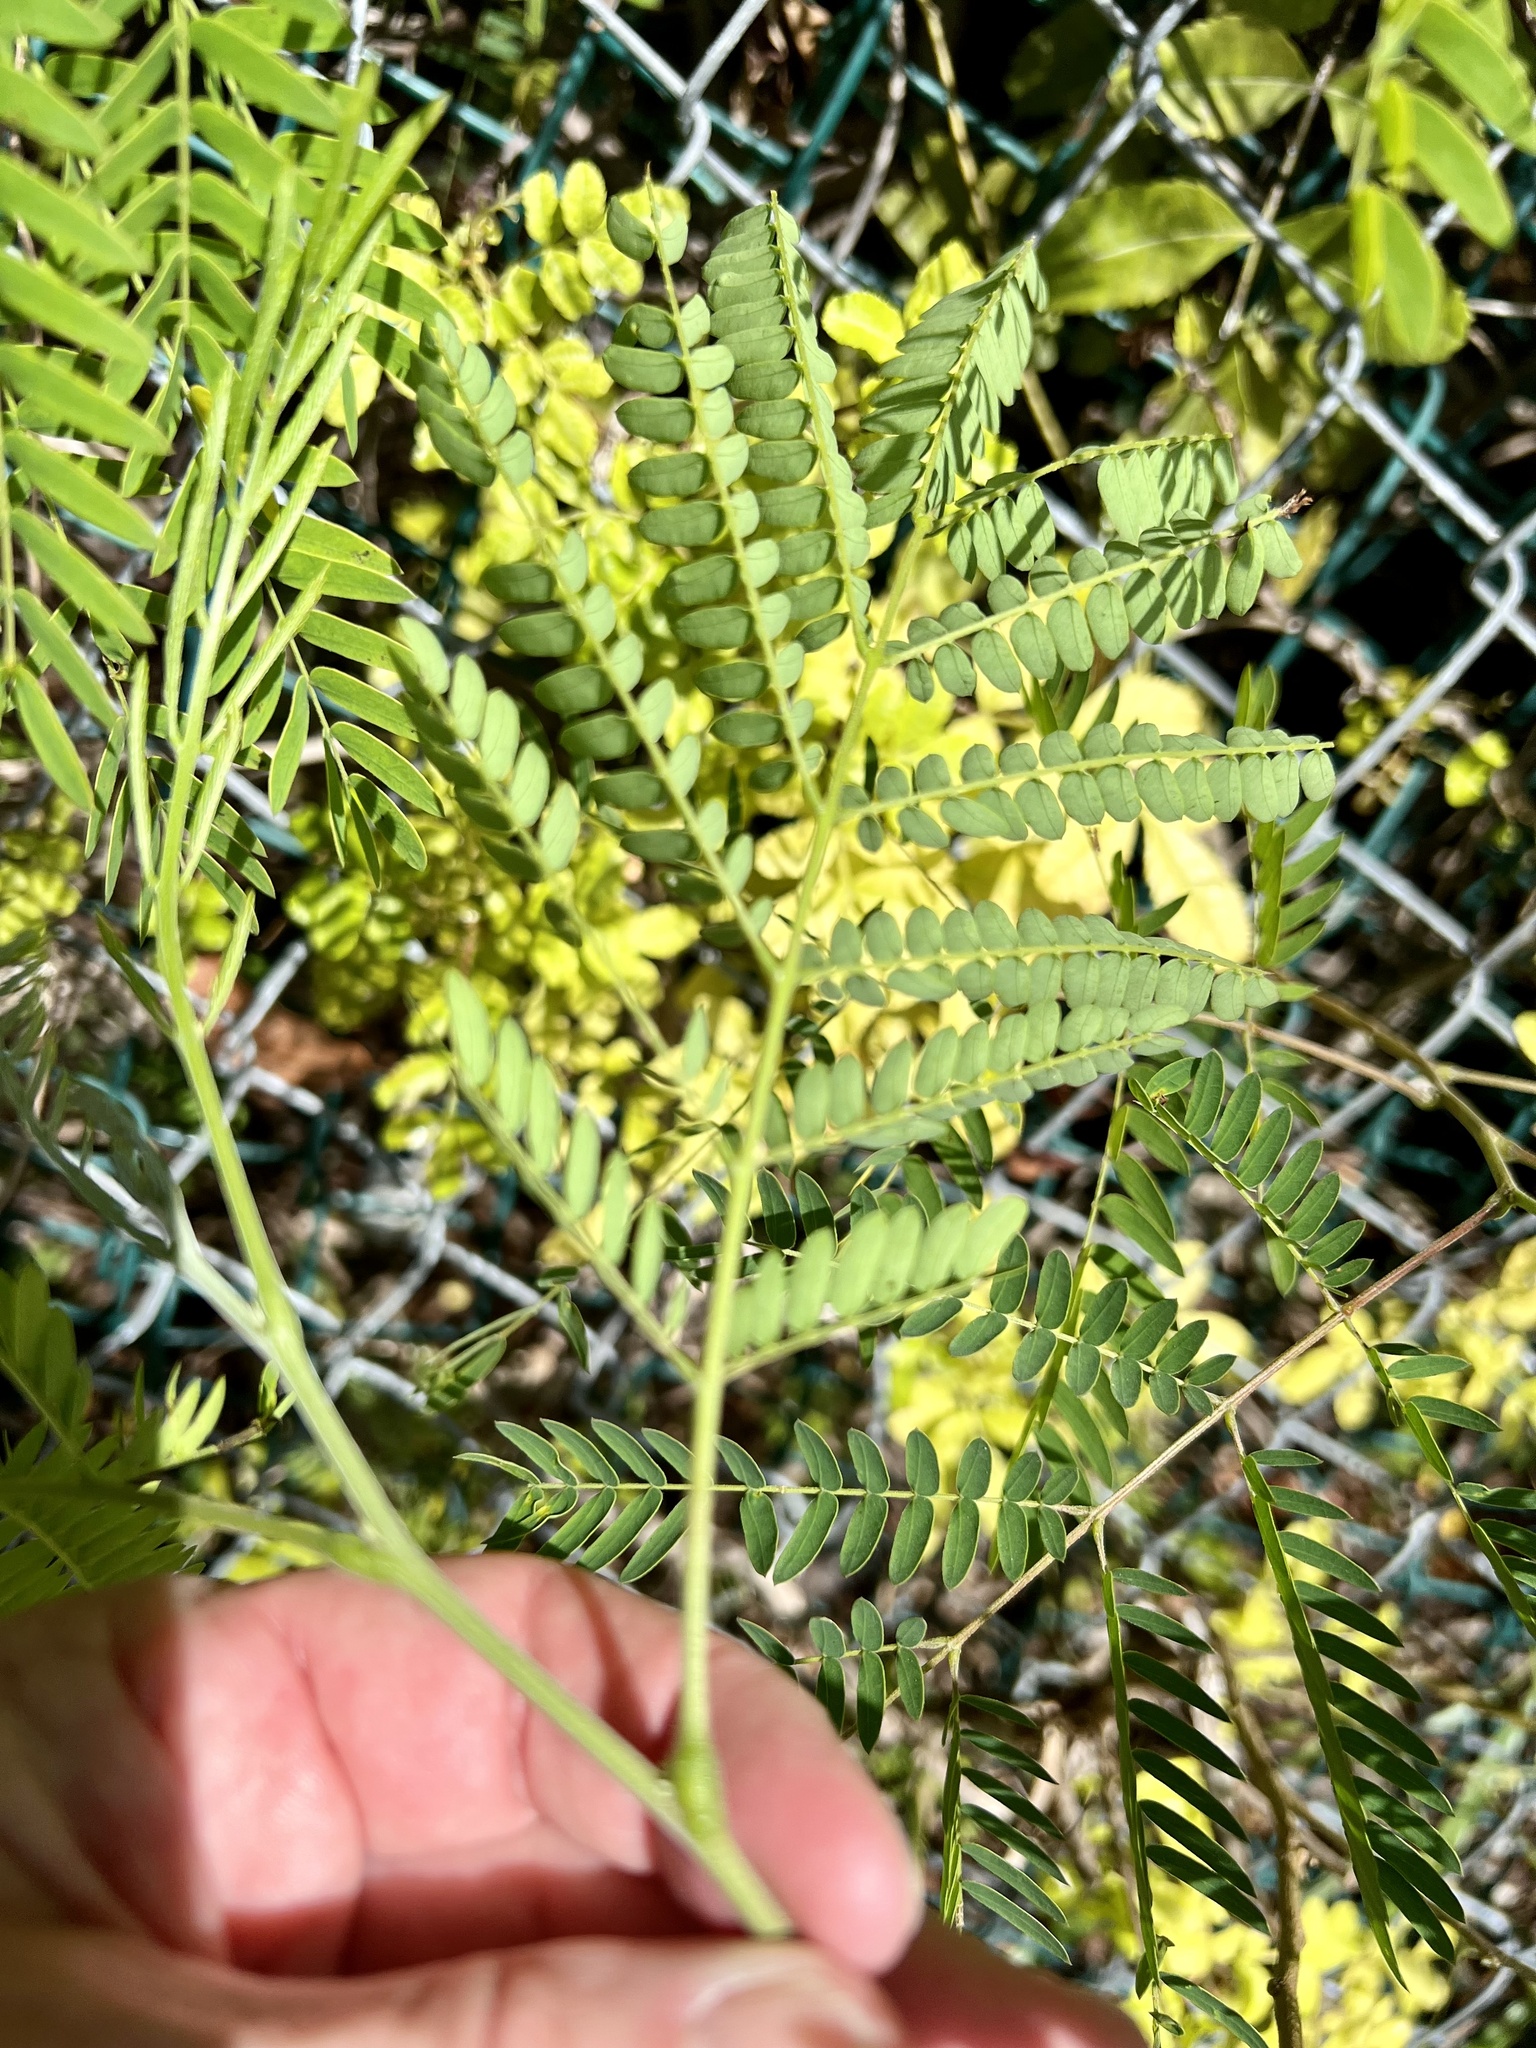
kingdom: Plantae
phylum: Tracheophyta
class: Magnoliopsida
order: Fabales
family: Fabaceae
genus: Leucaena
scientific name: Leucaena leucocephala
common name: White leadtree
